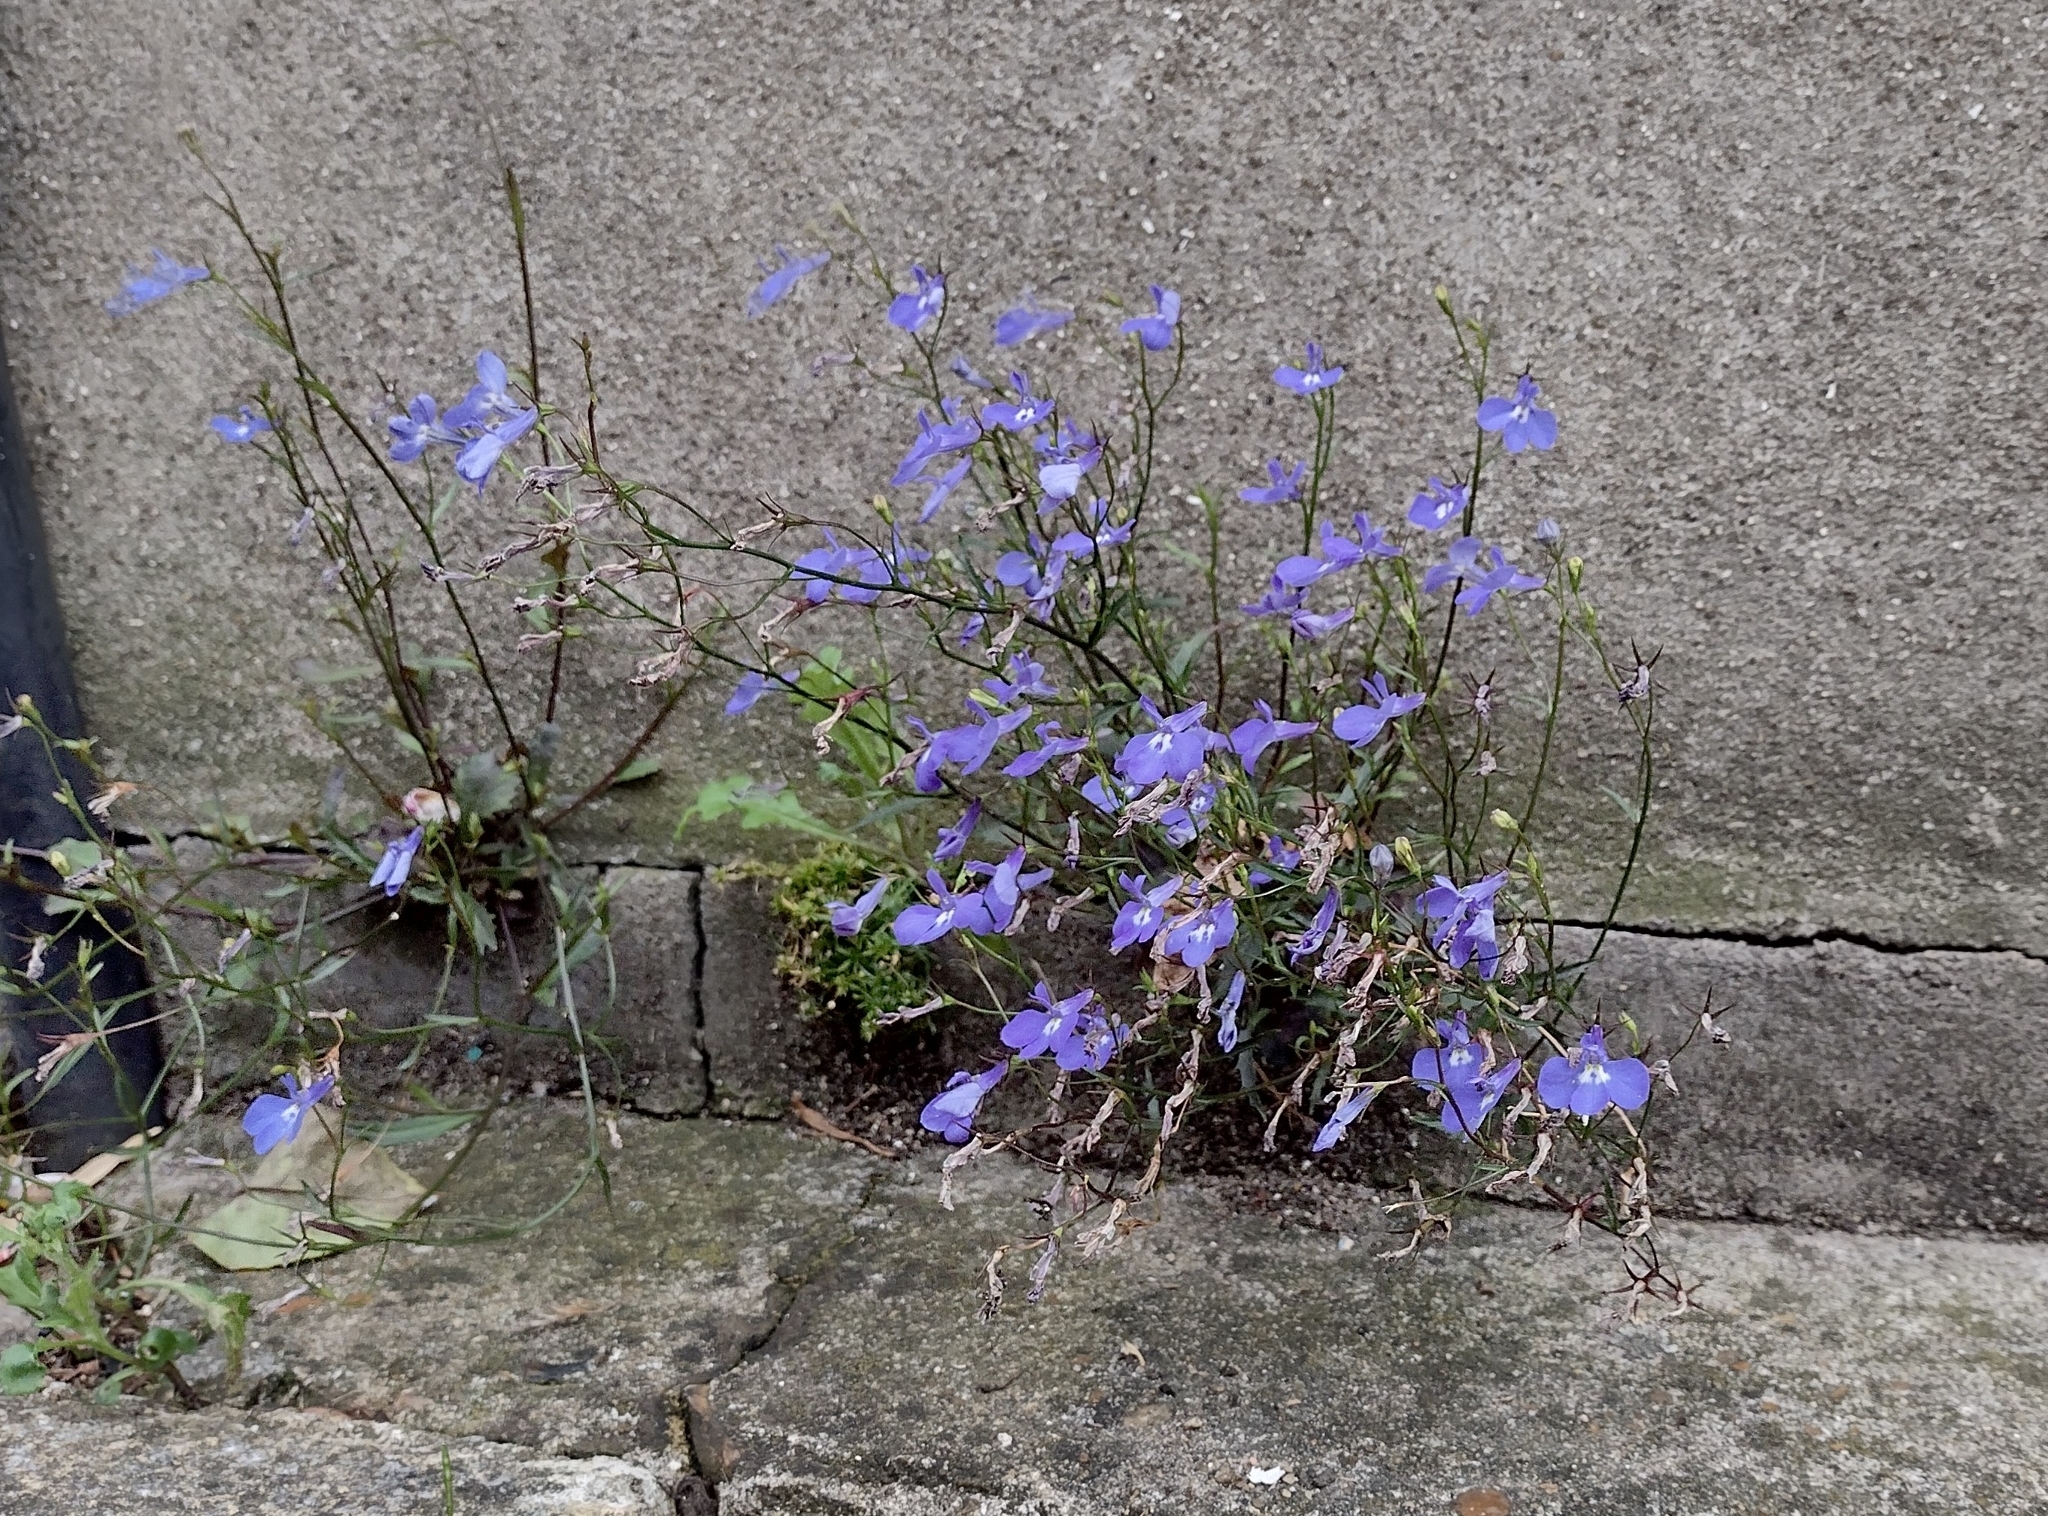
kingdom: Plantae
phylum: Tracheophyta
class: Magnoliopsida
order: Asterales
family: Campanulaceae
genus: Lobelia
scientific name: Lobelia erinus
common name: Edging lobelia
